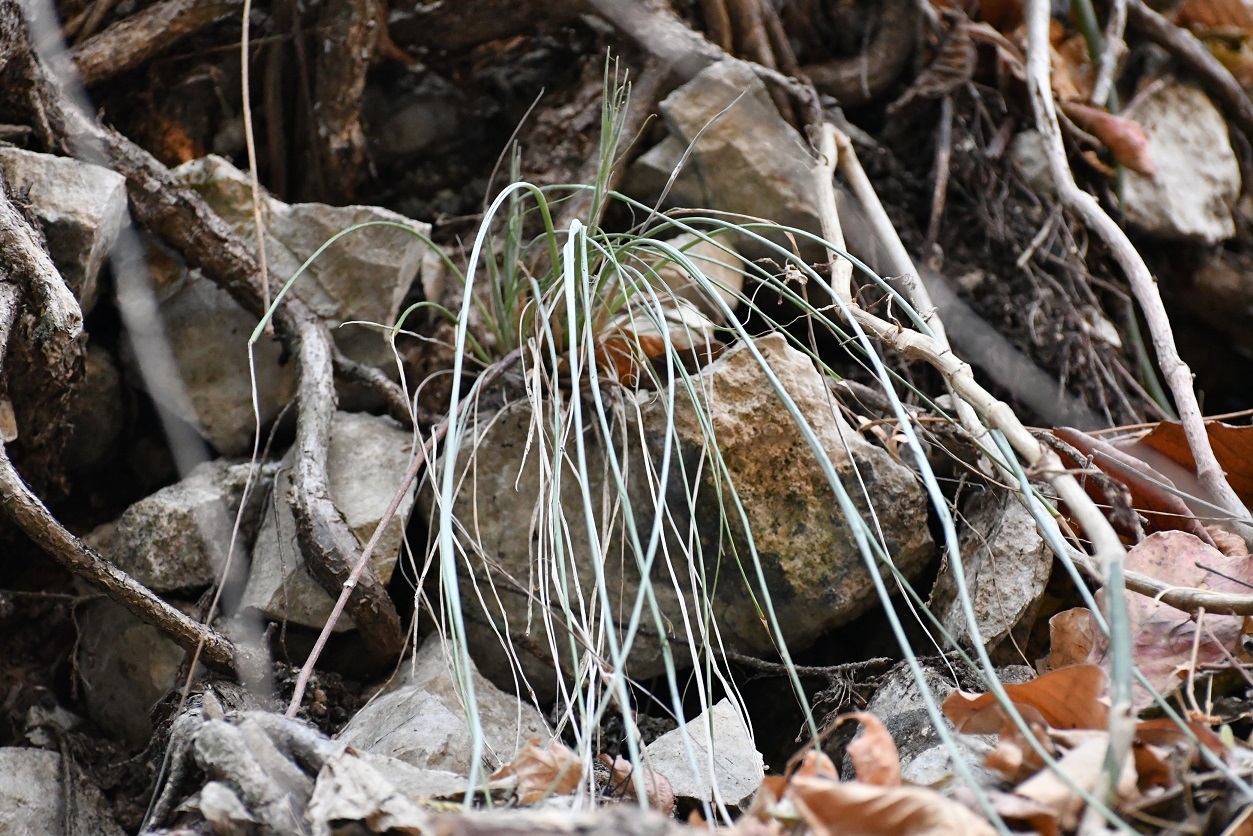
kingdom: Plantae
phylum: Tracheophyta
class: Liliopsida
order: Poales
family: Bromeliaceae
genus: Pitcairnia
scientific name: Pitcairnia breedlovei
